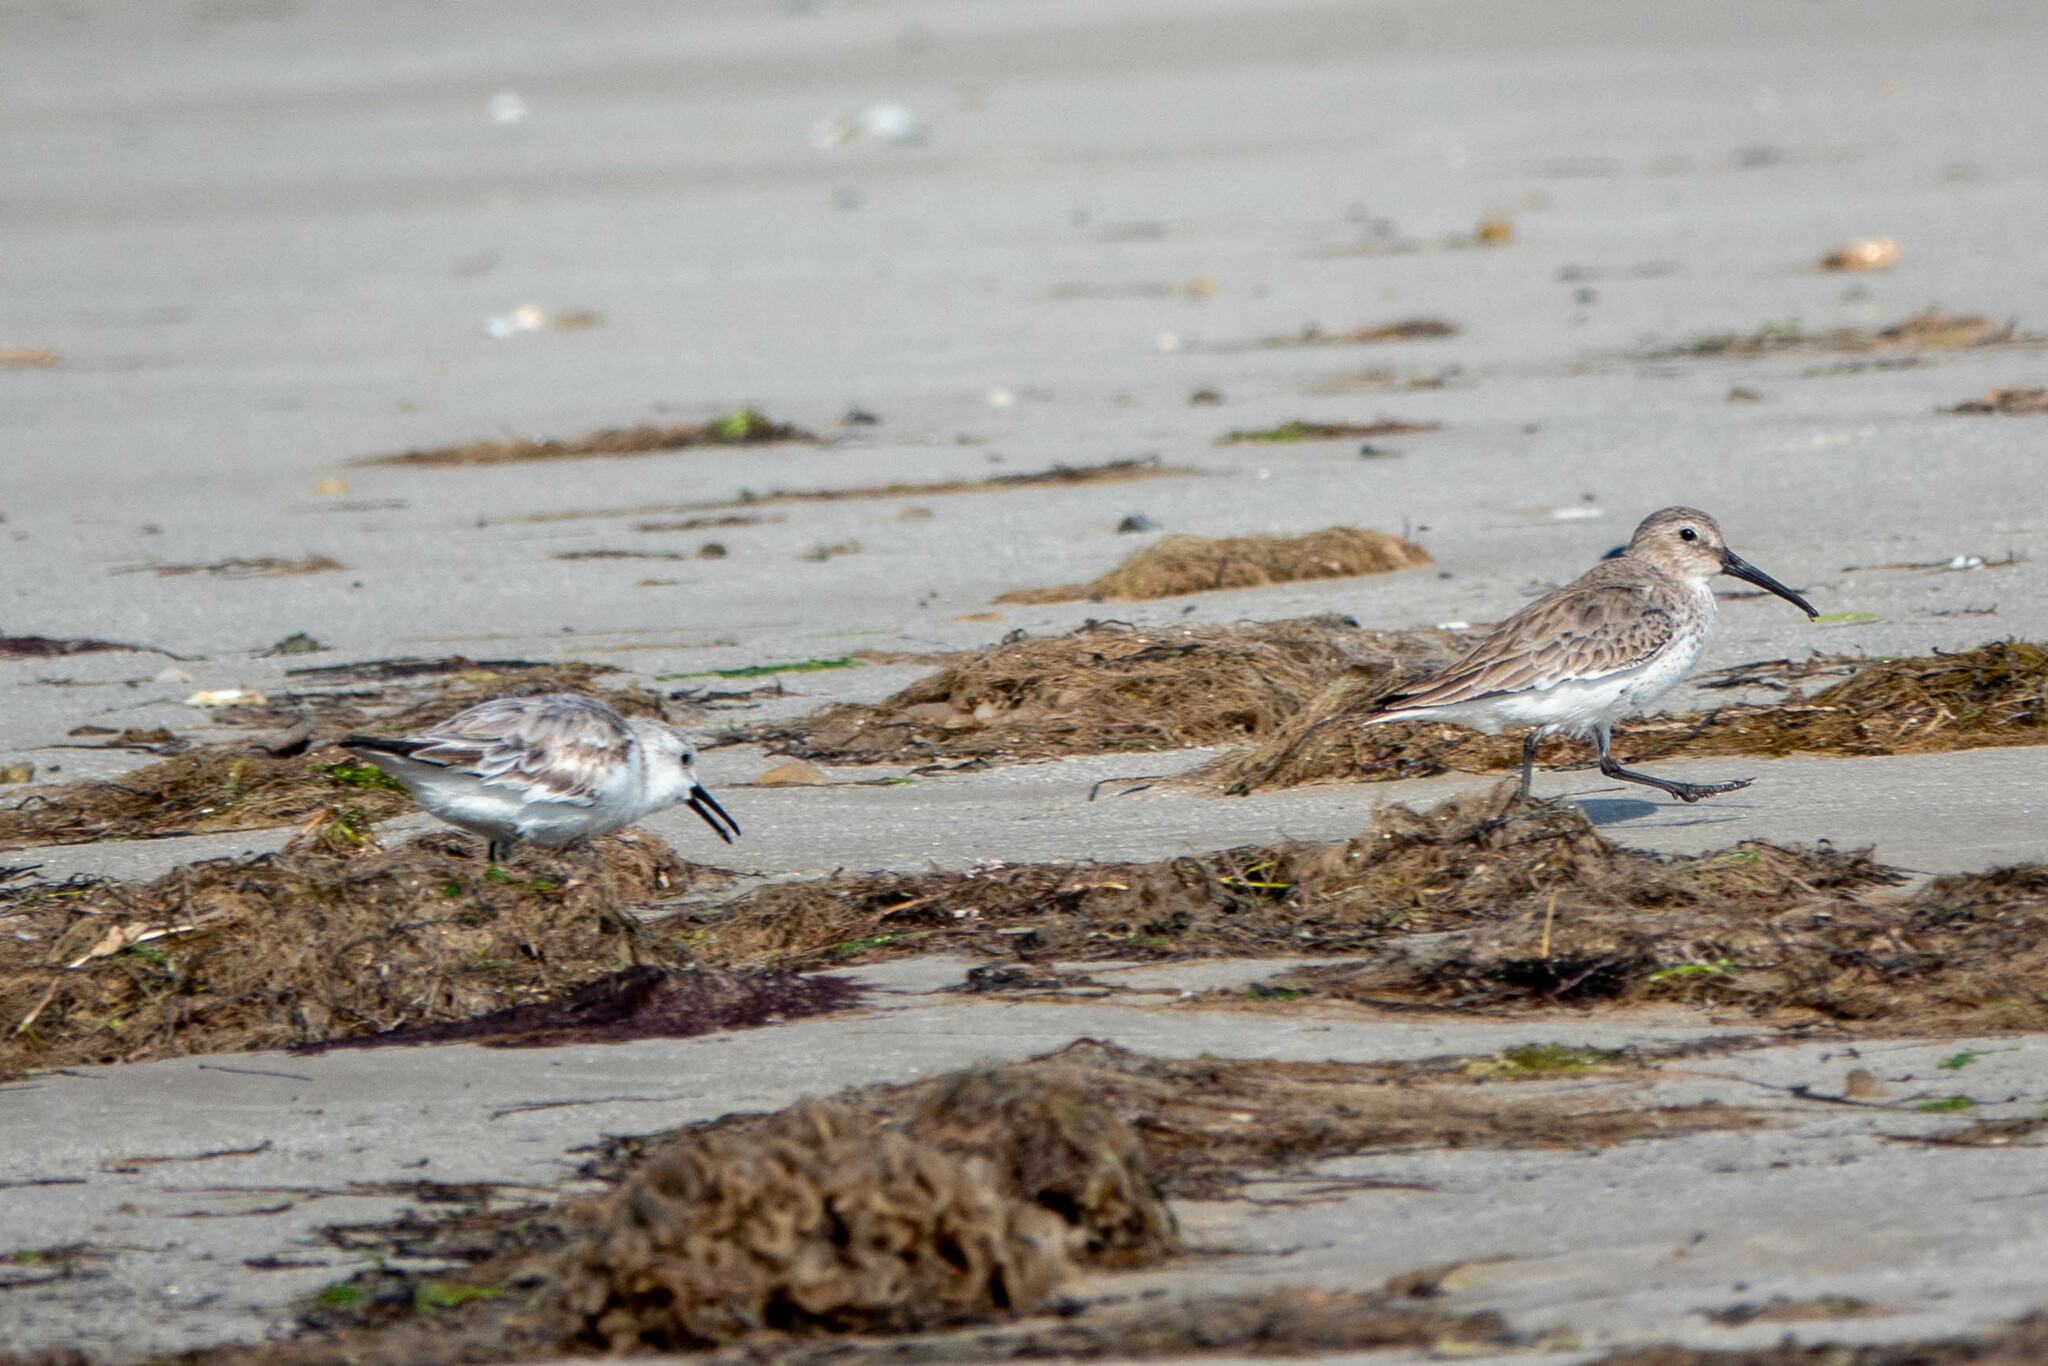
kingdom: Animalia
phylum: Chordata
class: Aves
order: Charadriiformes
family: Scolopacidae
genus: Calidris
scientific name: Calidris alpina
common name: Dunlin
